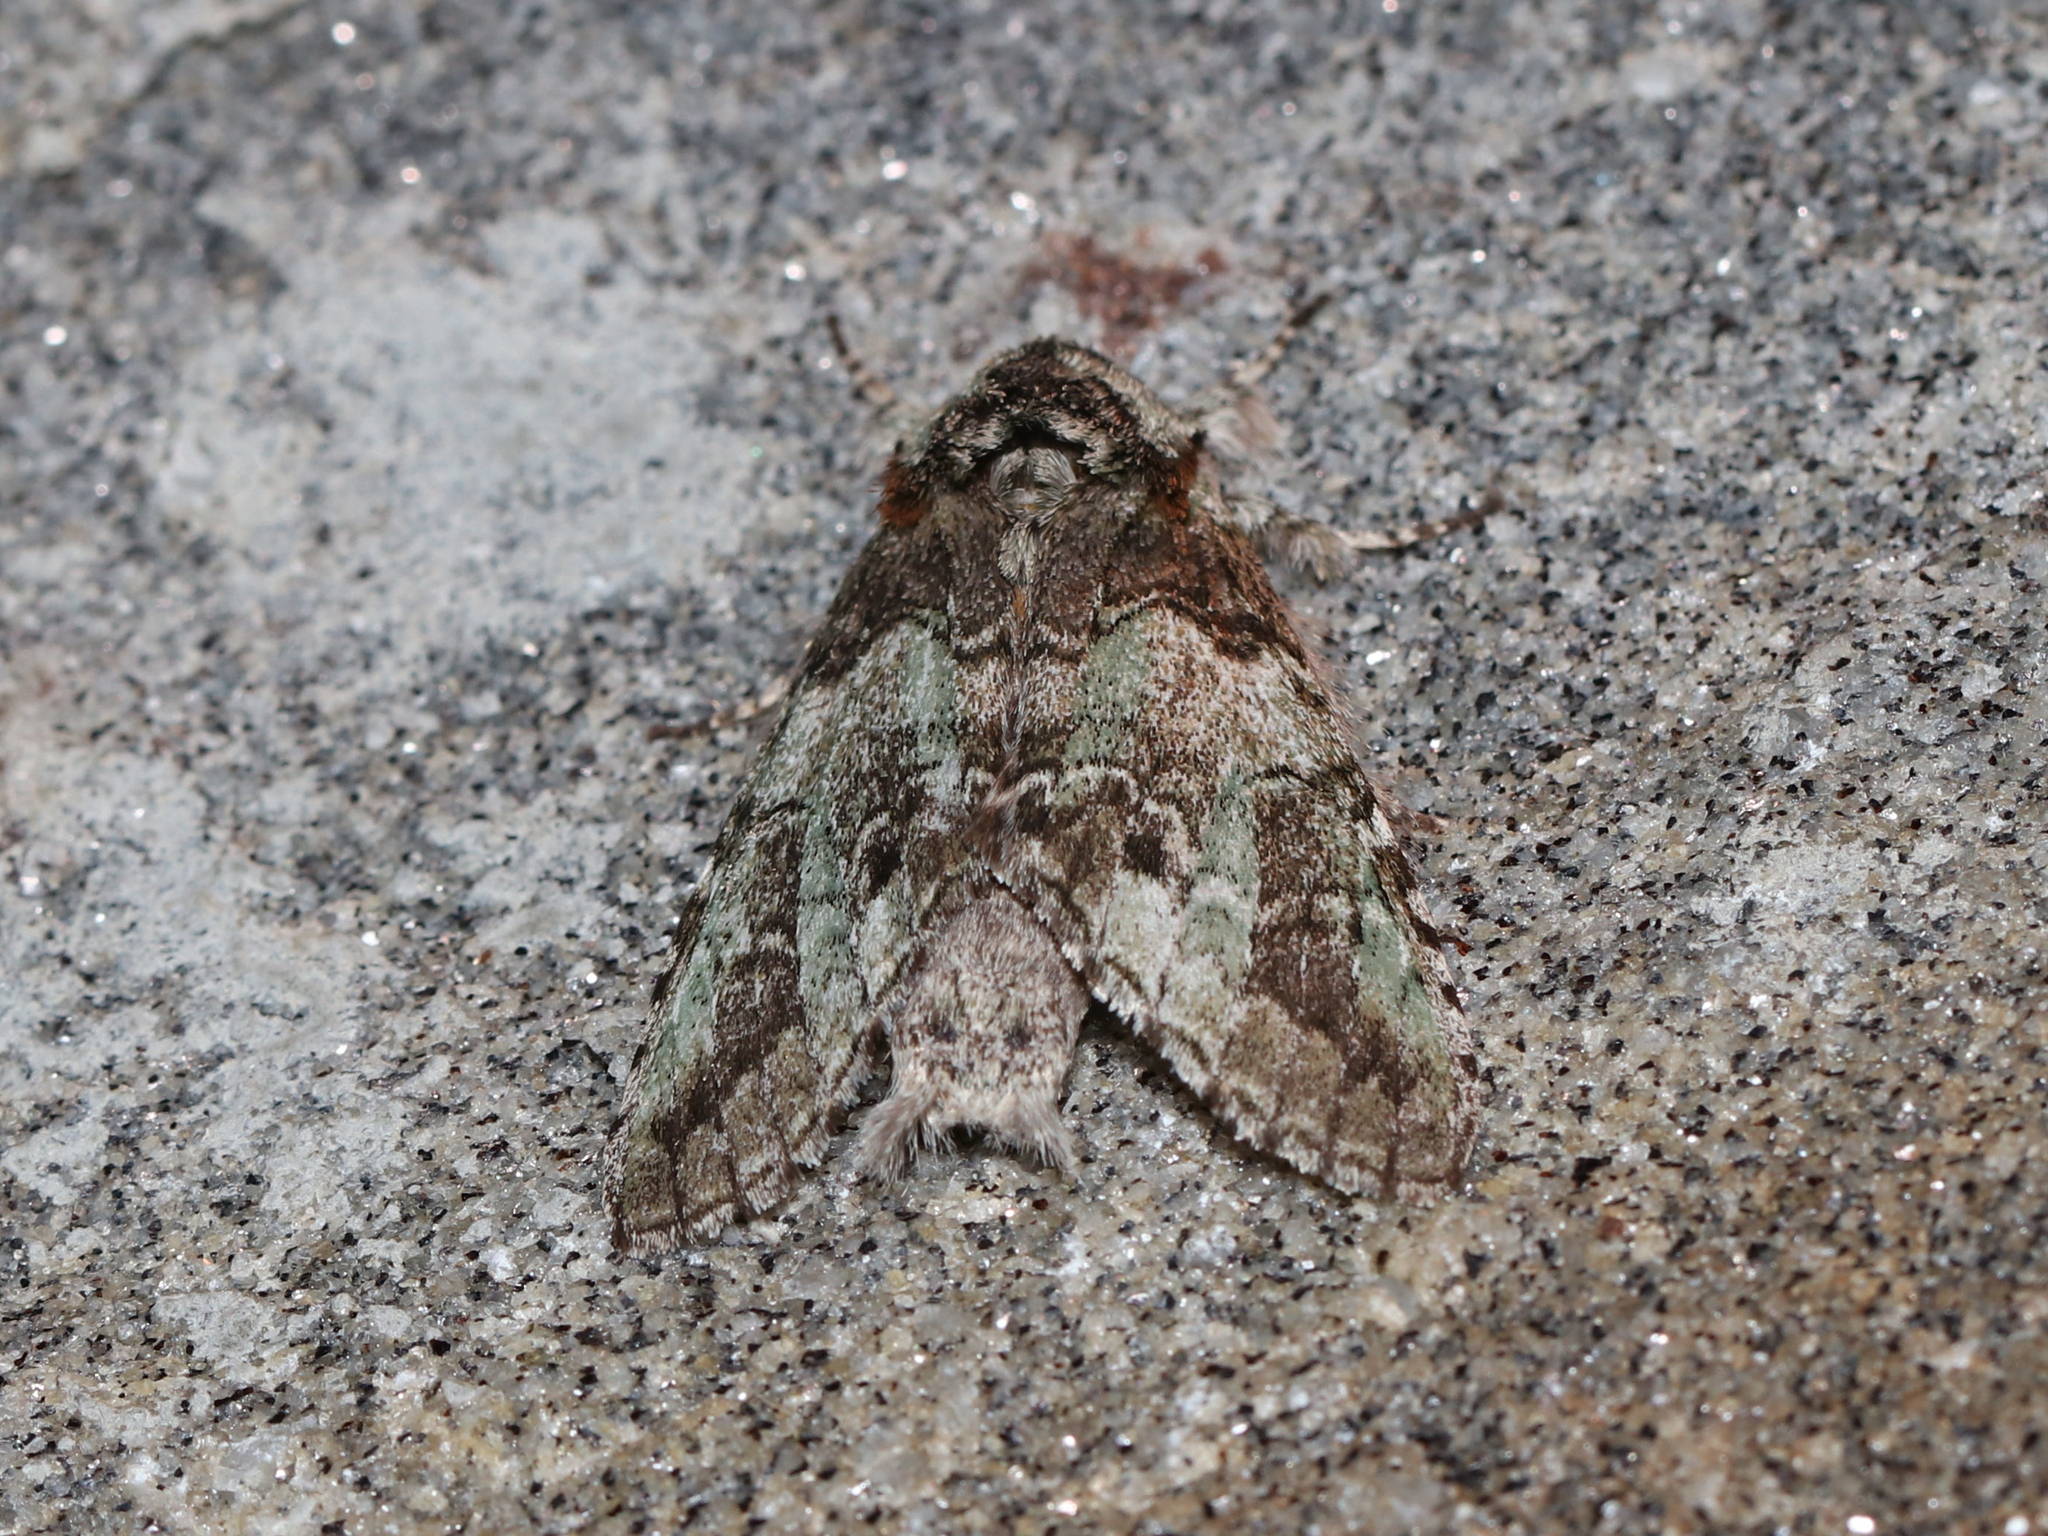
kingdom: Animalia
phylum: Arthropoda
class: Insecta
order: Lepidoptera
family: Notodontidae
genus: Macrurocampa
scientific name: Macrurocampa marthesia
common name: Mottled prominent
